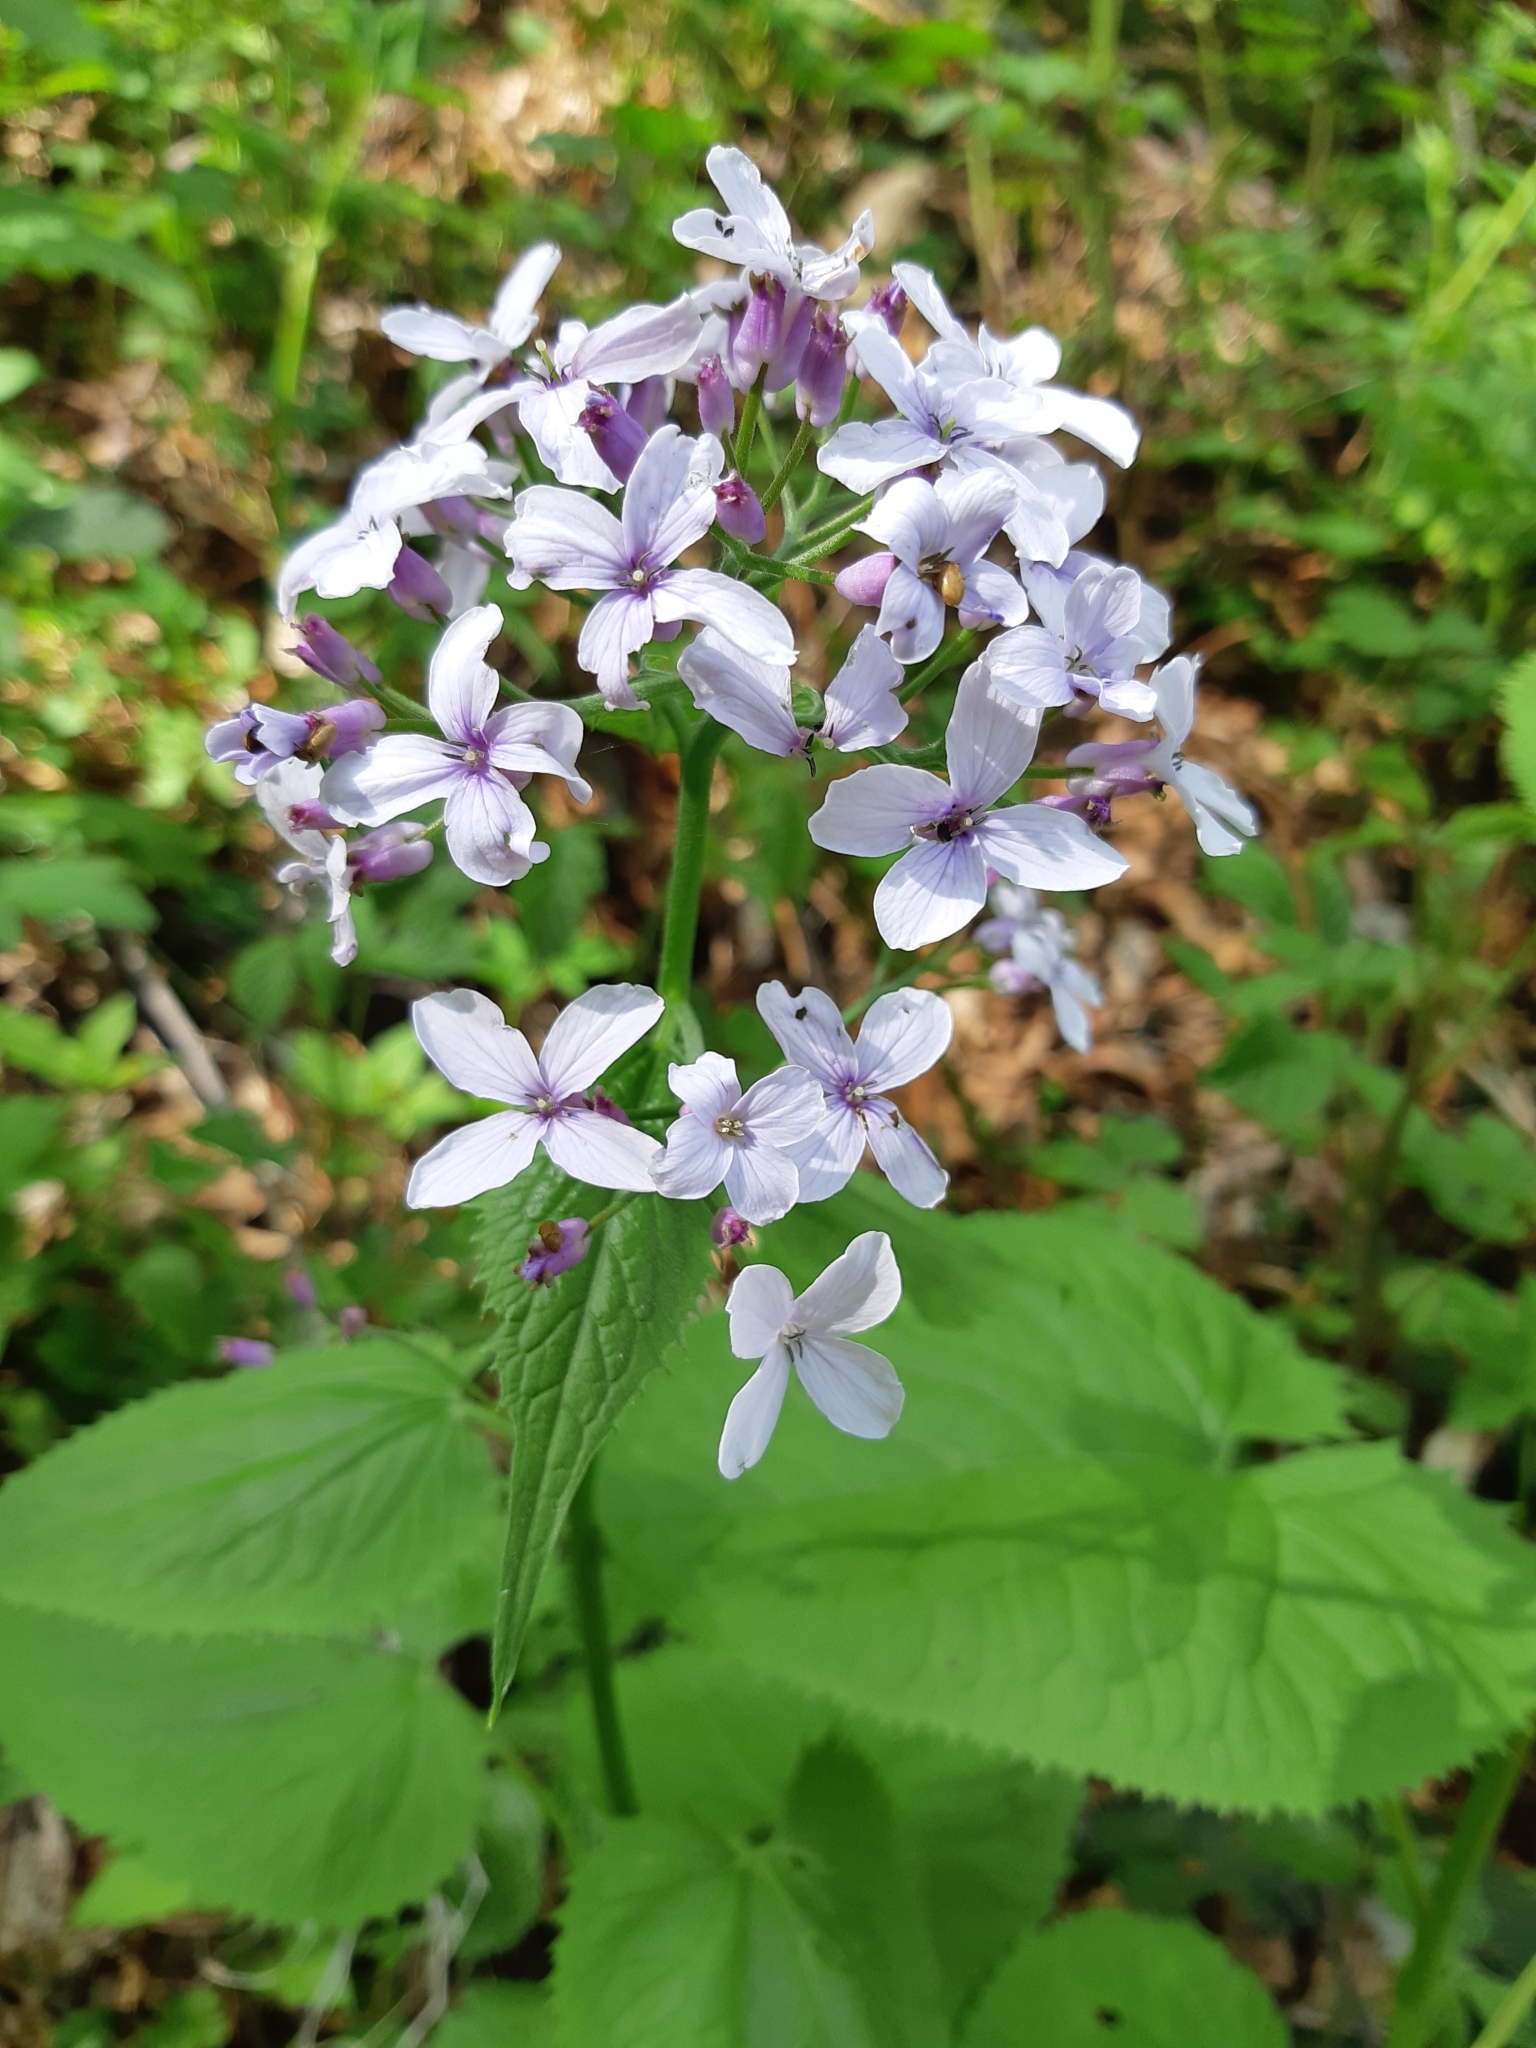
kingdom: Plantae
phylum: Tracheophyta
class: Magnoliopsida
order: Brassicales
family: Brassicaceae
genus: Lunaria
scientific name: Lunaria rediviva
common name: Perennial honesty
